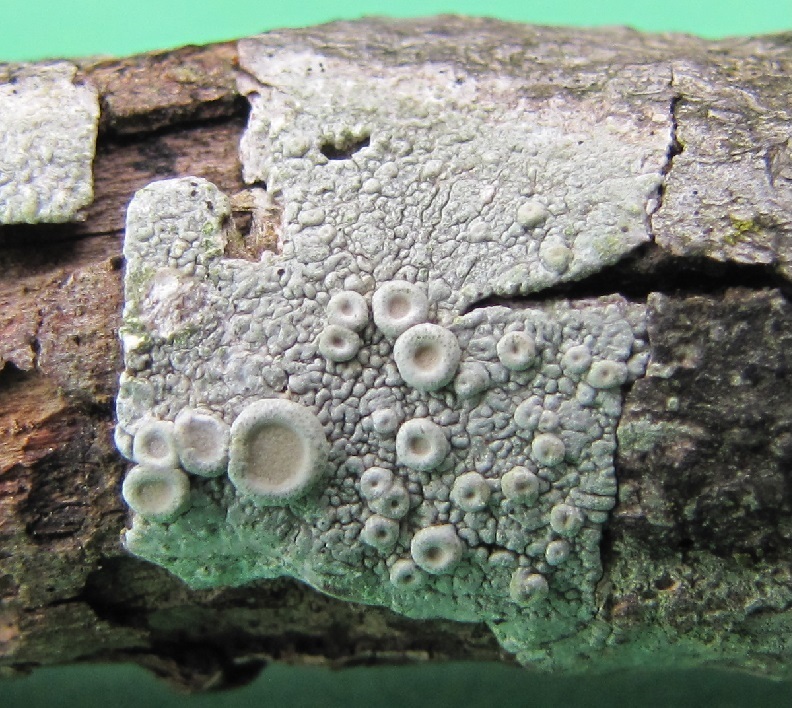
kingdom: Fungi
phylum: Ascomycota
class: Lecanoromycetes
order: Pertusariales
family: Ochrolechiaceae
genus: Ochrolechia
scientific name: Ochrolechia africana
